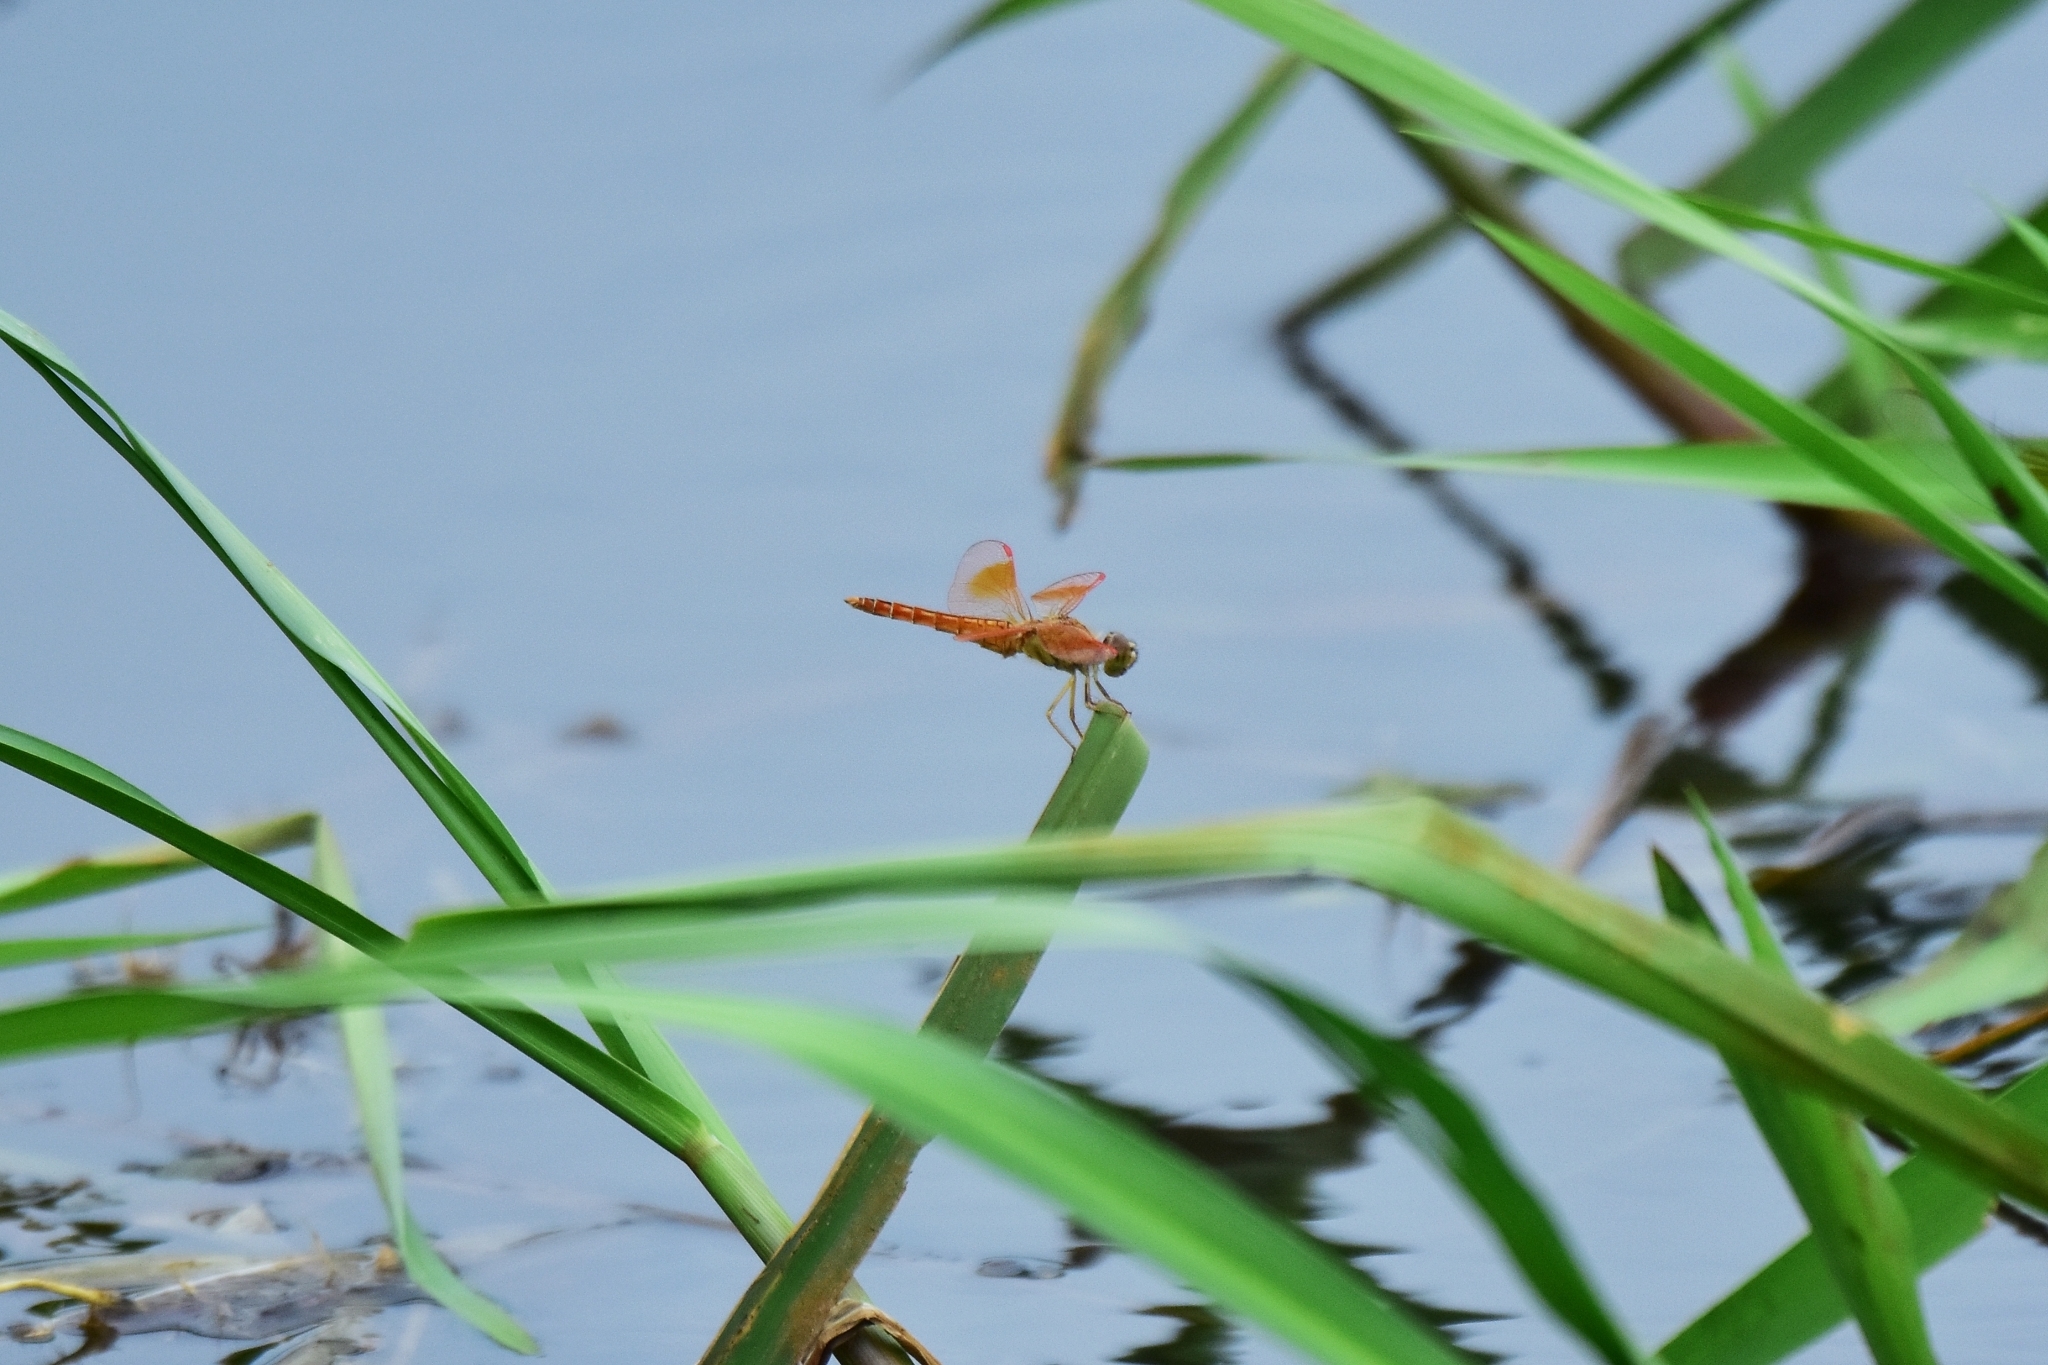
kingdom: Animalia
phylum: Arthropoda
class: Insecta
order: Odonata
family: Libellulidae
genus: Brachythemis
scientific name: Brachythemis contaminata
